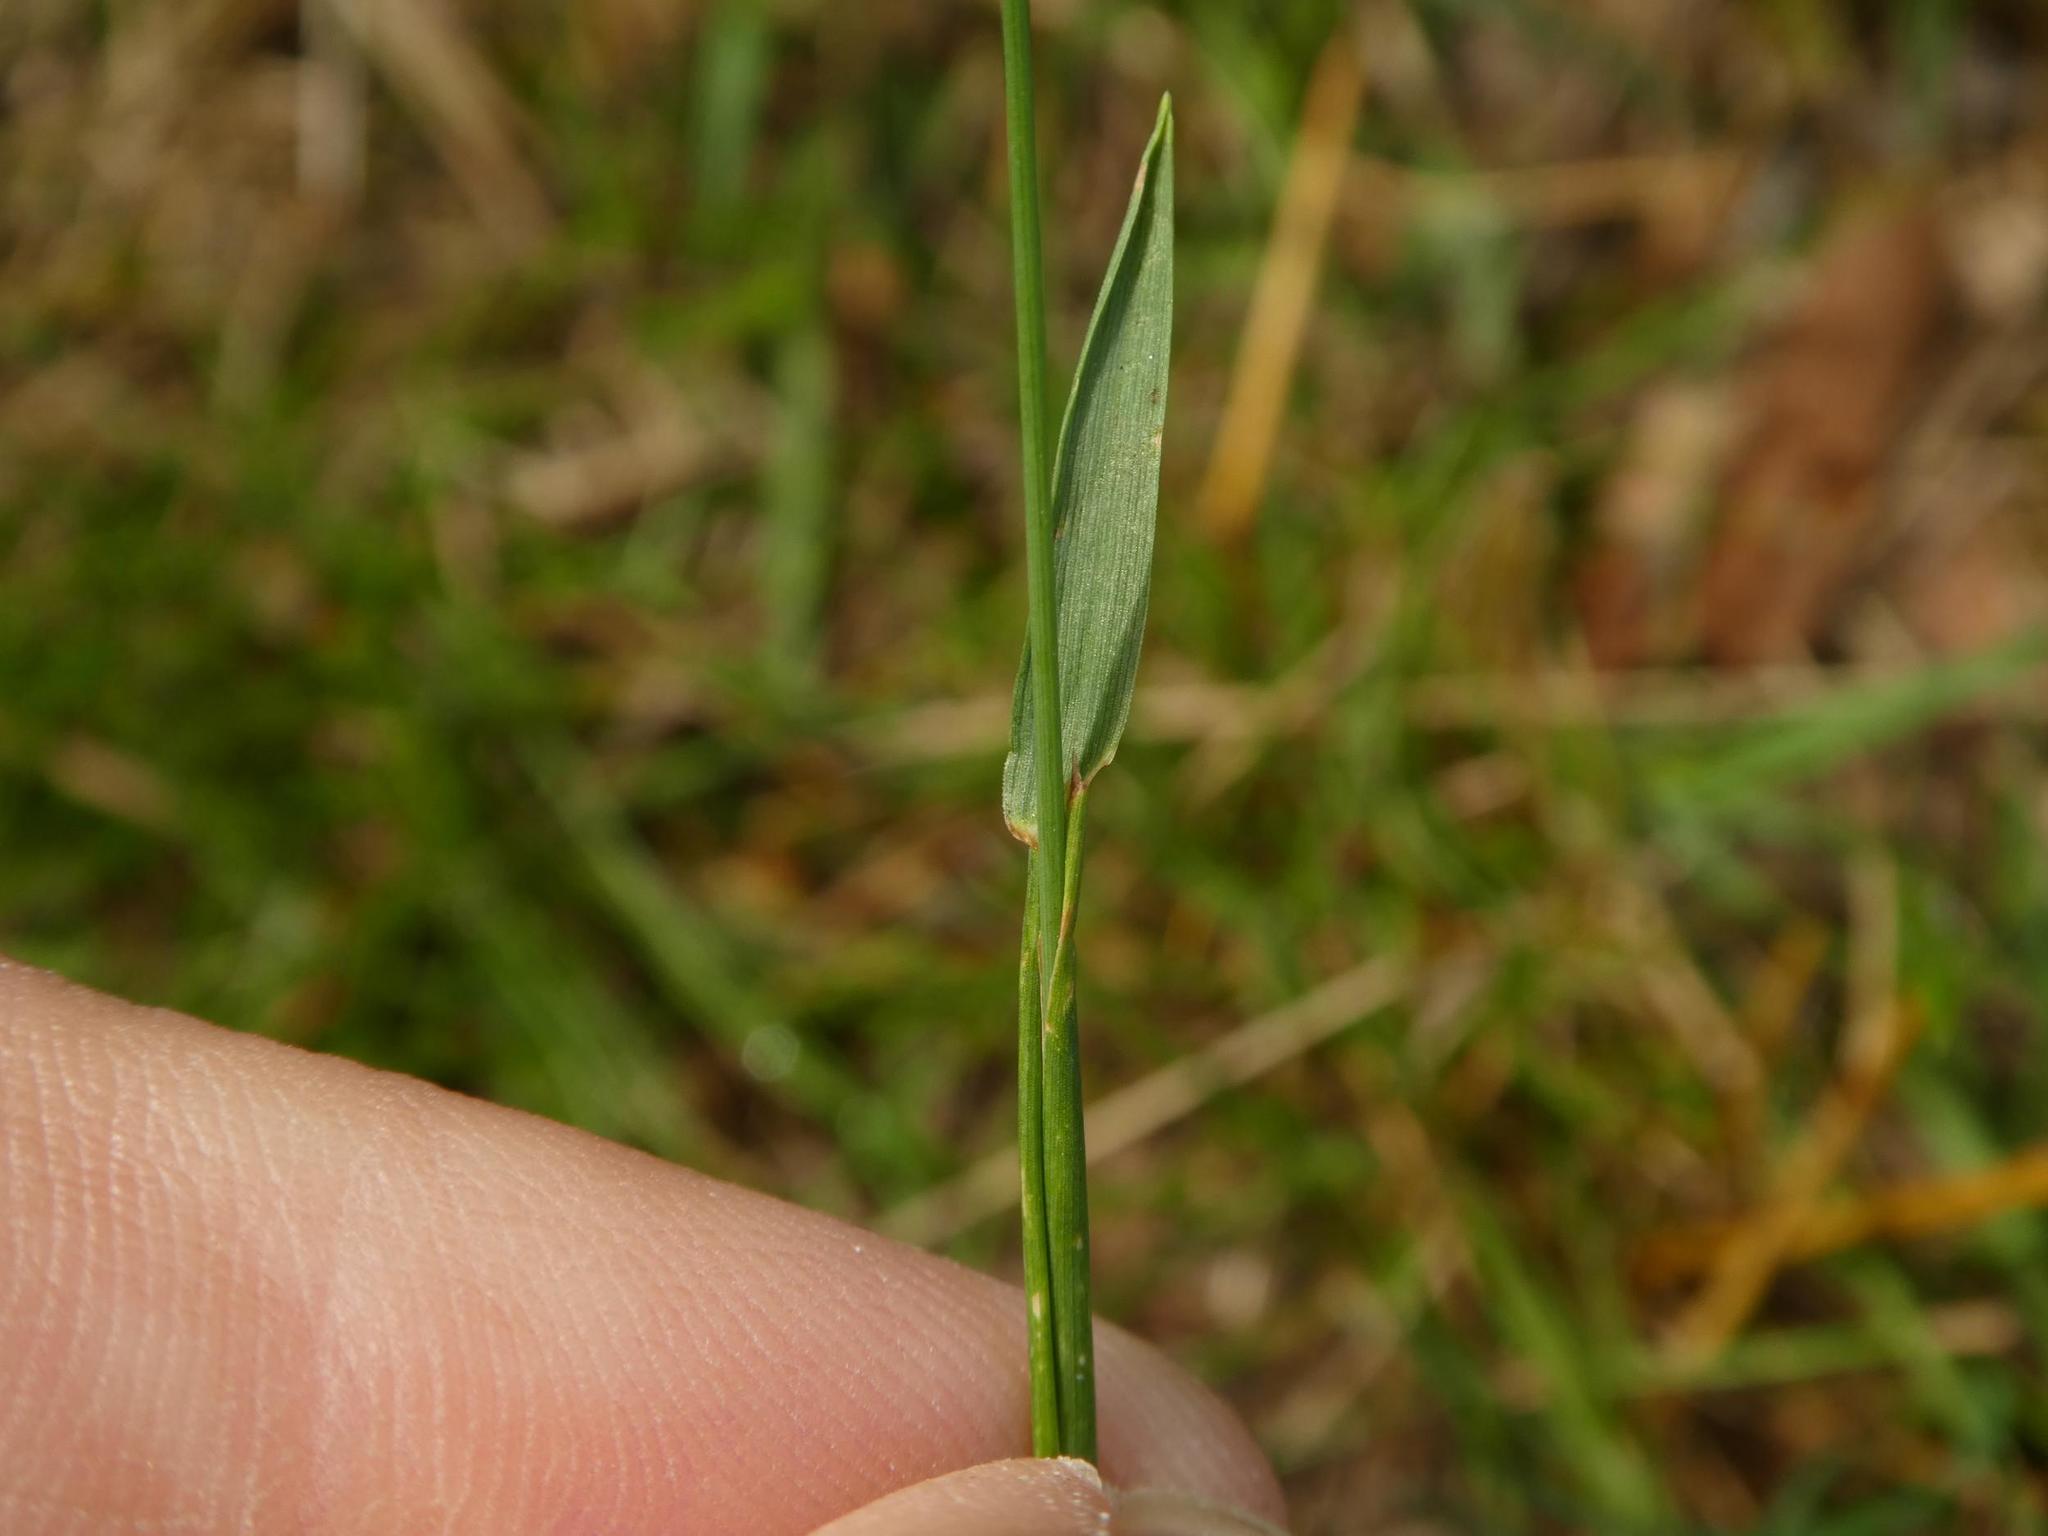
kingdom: Plantae
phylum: Tracheophyta
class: Liliopsida
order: Poales
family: Poaceae
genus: Phleum
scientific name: Phleum pratense
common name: Timothy grass
